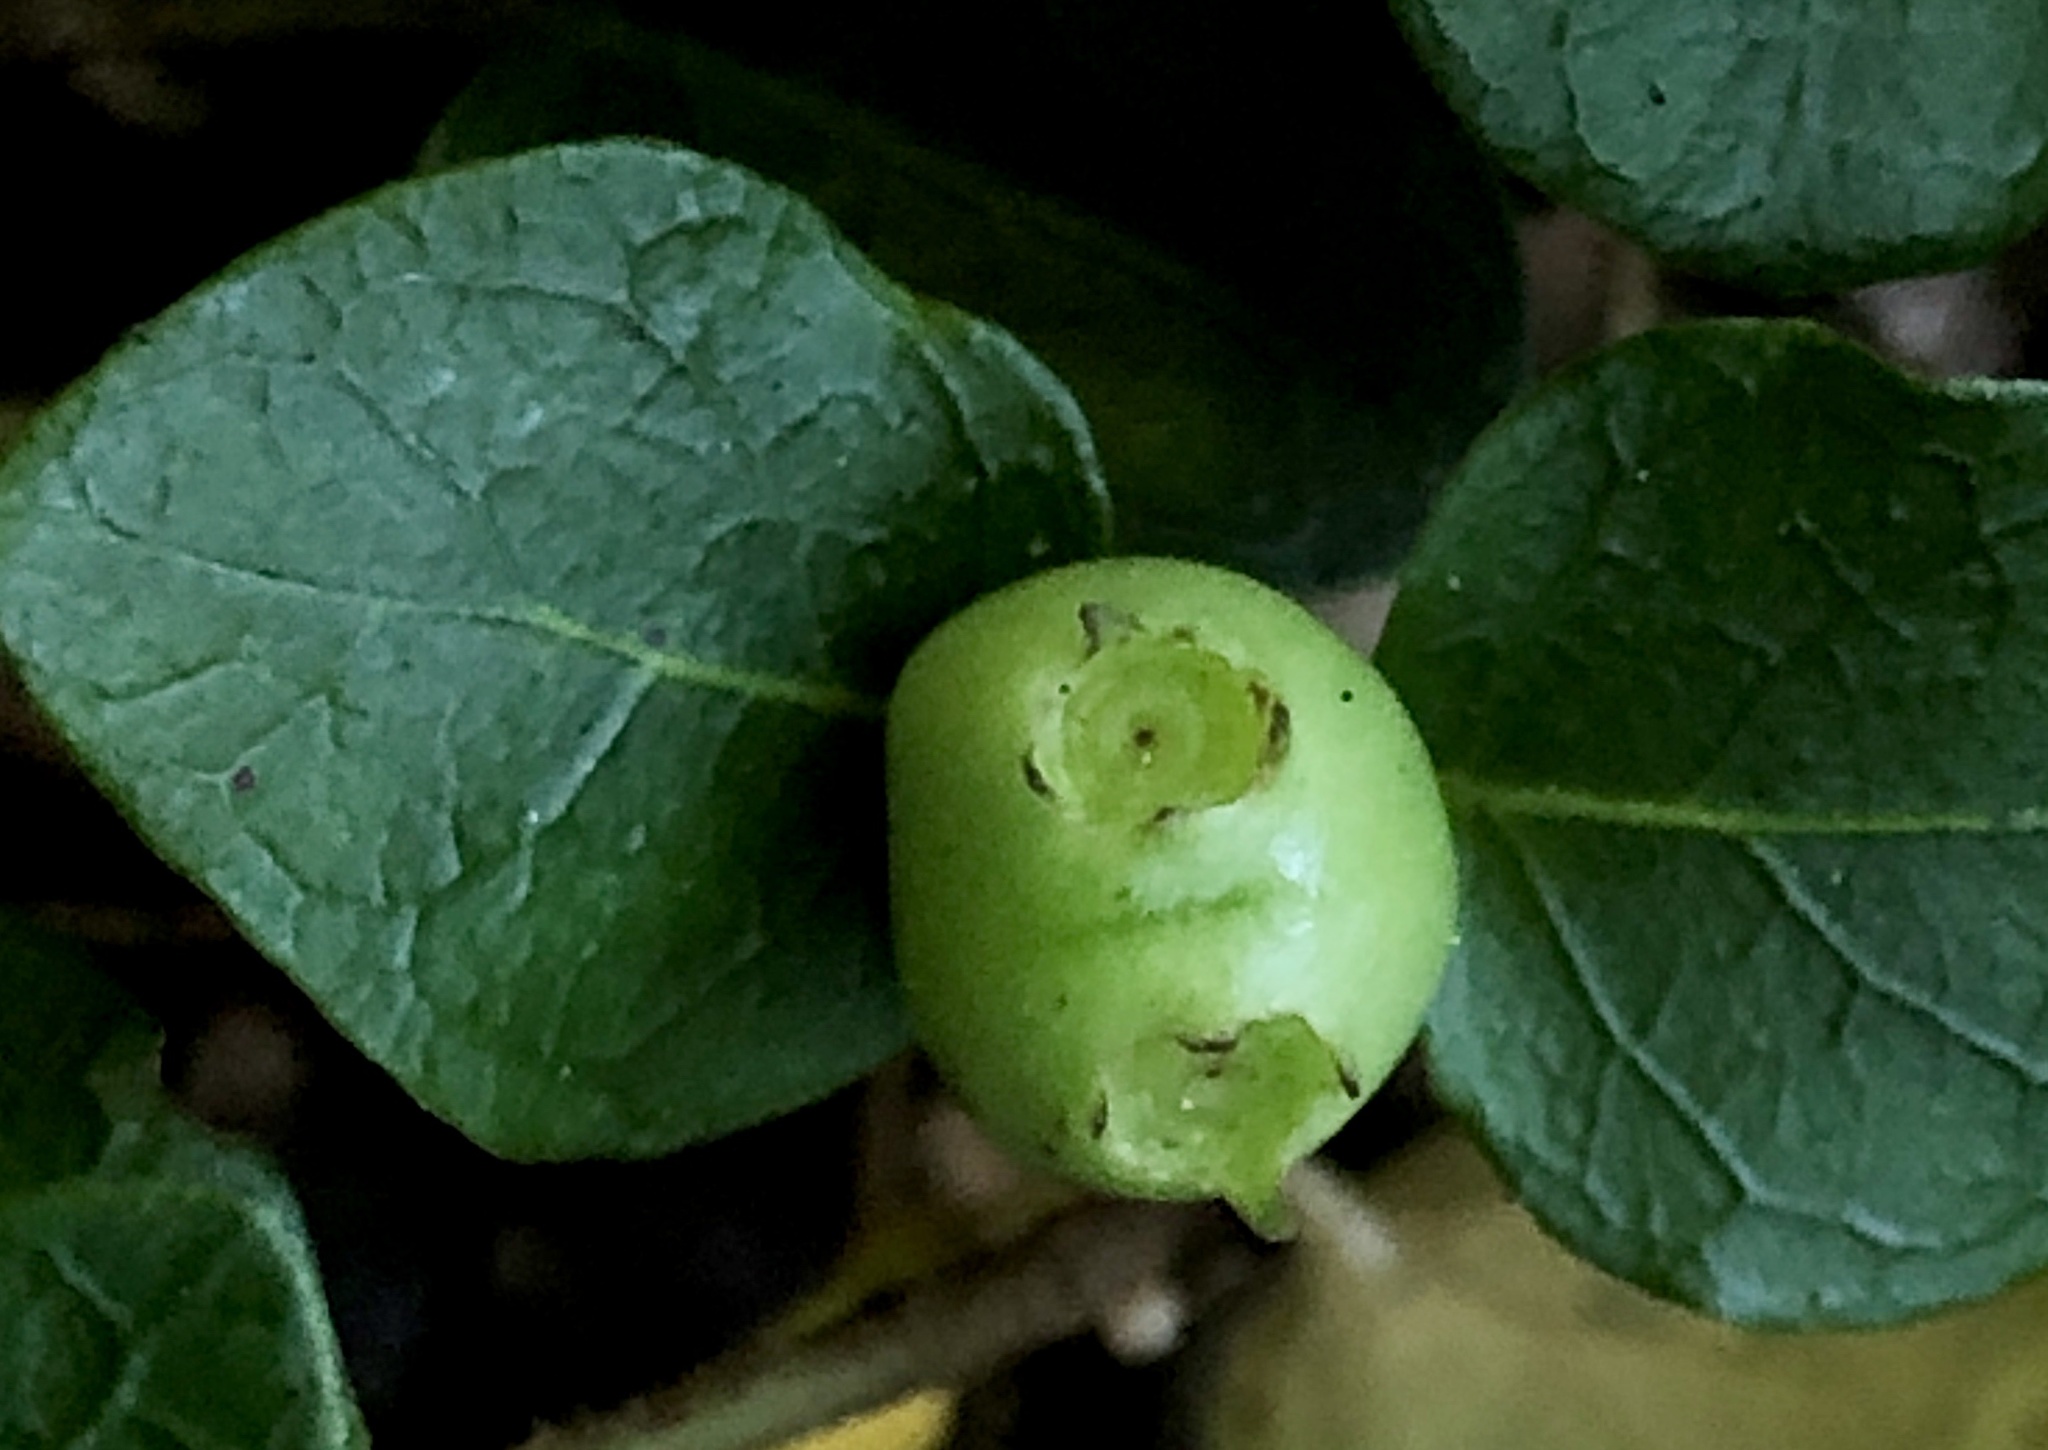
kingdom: Plantae
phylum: Tracheophyta
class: Magnoliopsida
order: Gentianales
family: Rubiaceae
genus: Mitchella
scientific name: Mitchella repens
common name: Partridge-berry
